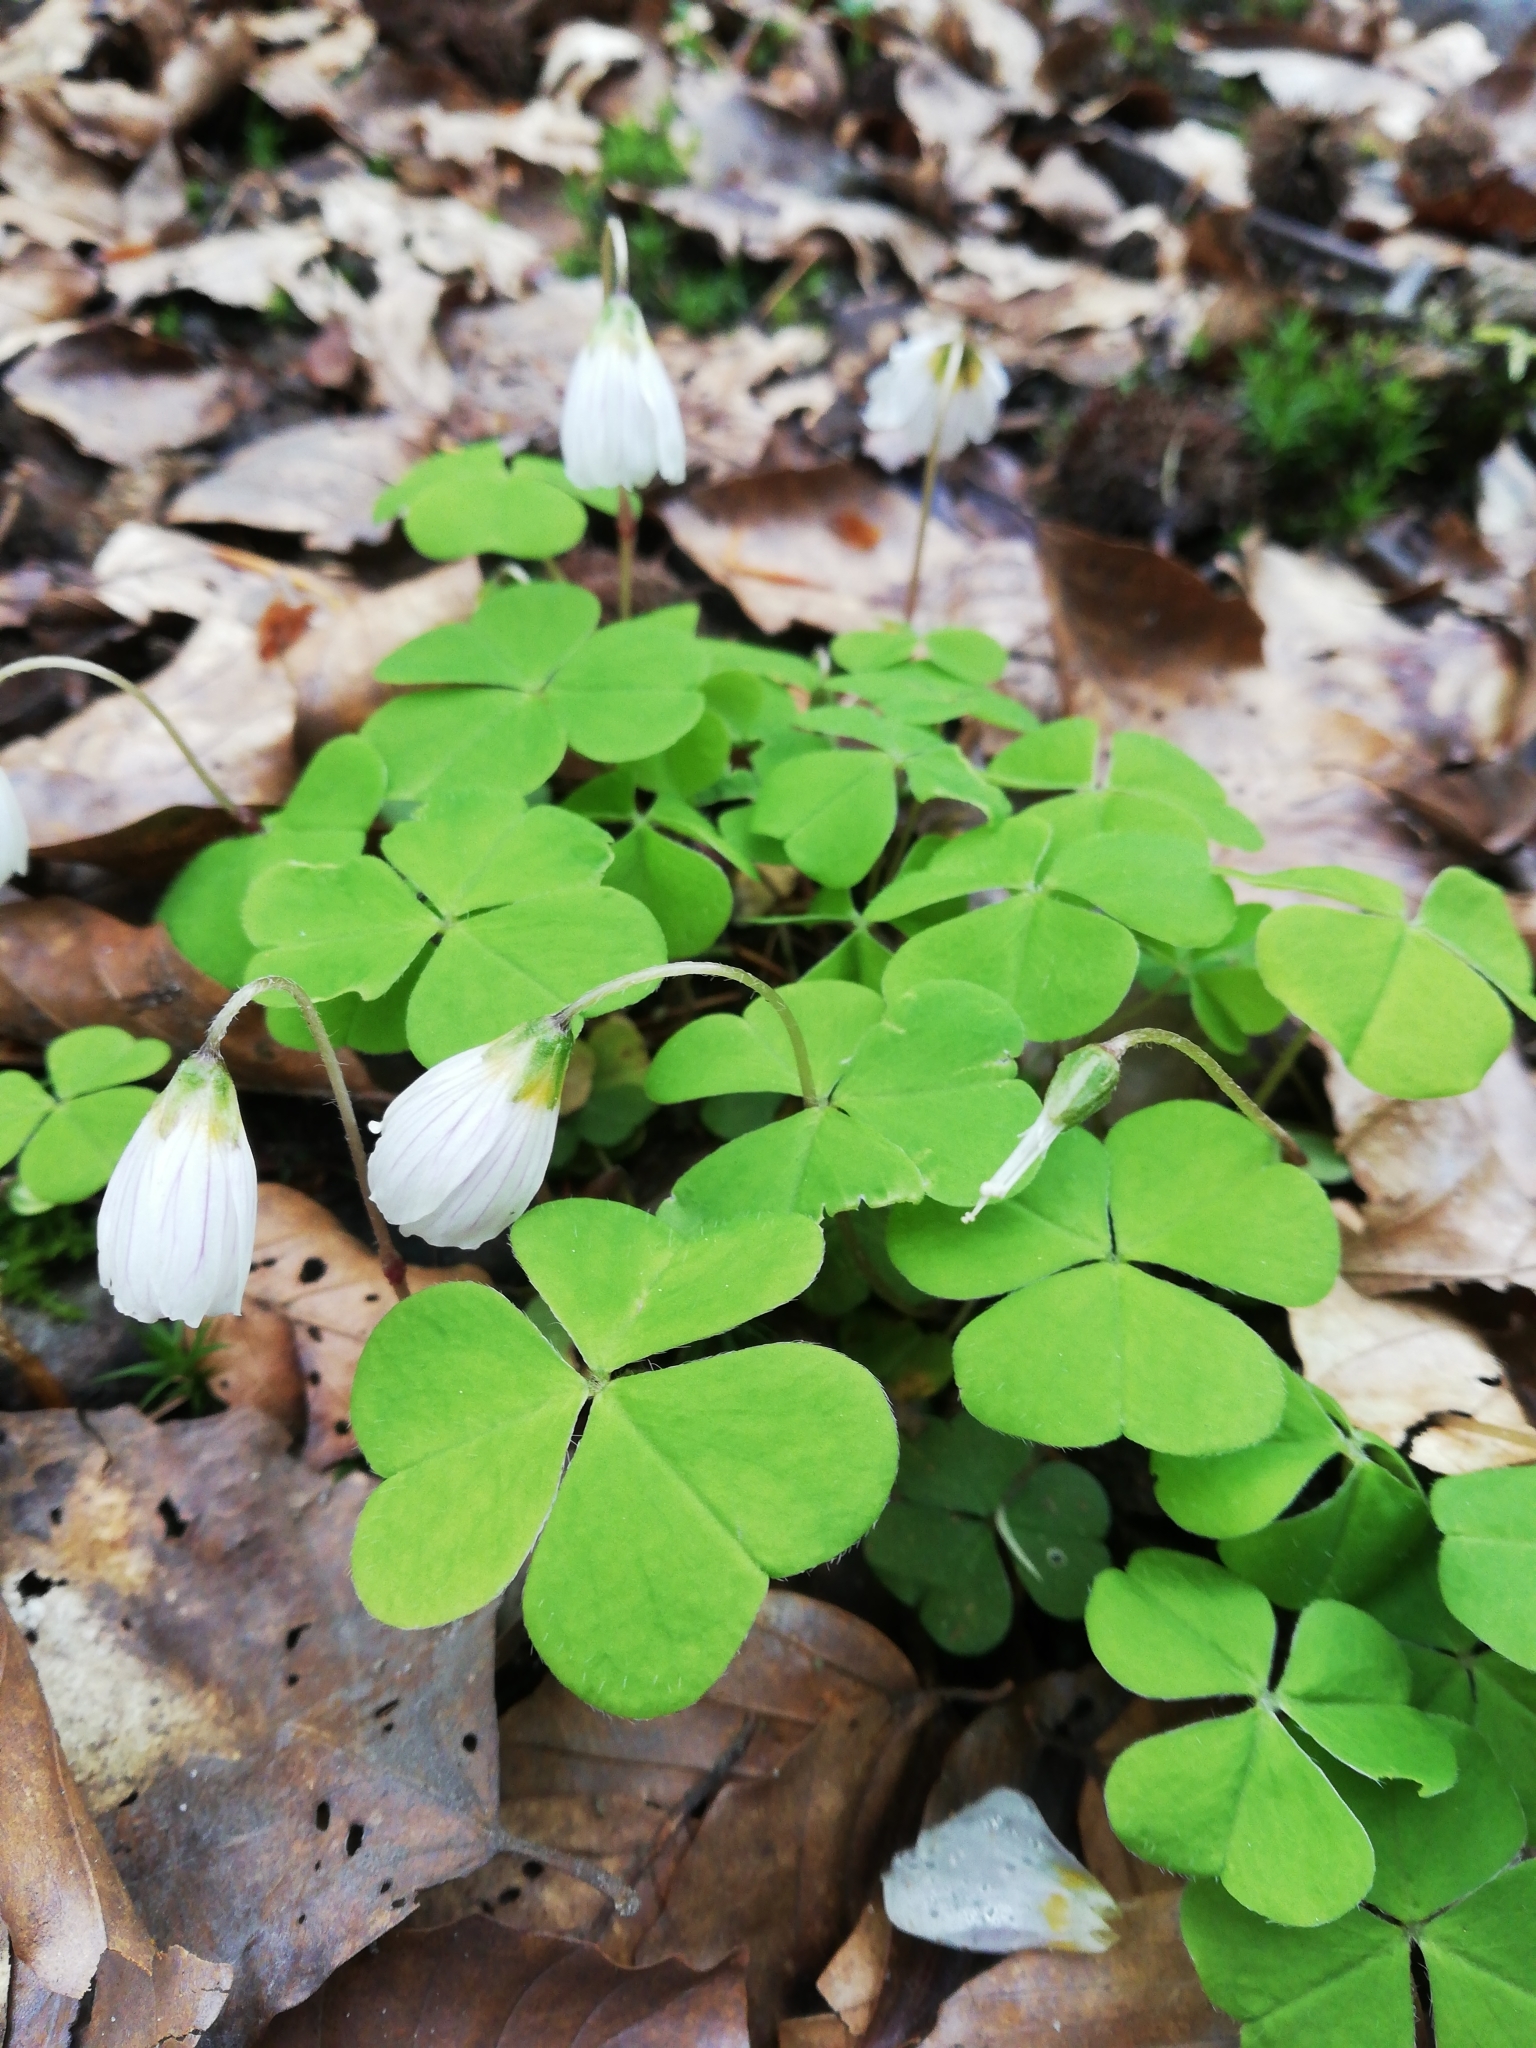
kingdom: Plantae
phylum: Tracheophyta
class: Magnoliopsida
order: Oxalidales
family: Oxalidaceae
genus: Oxalis
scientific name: Oxalis acetosella
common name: Wood-sorrel
